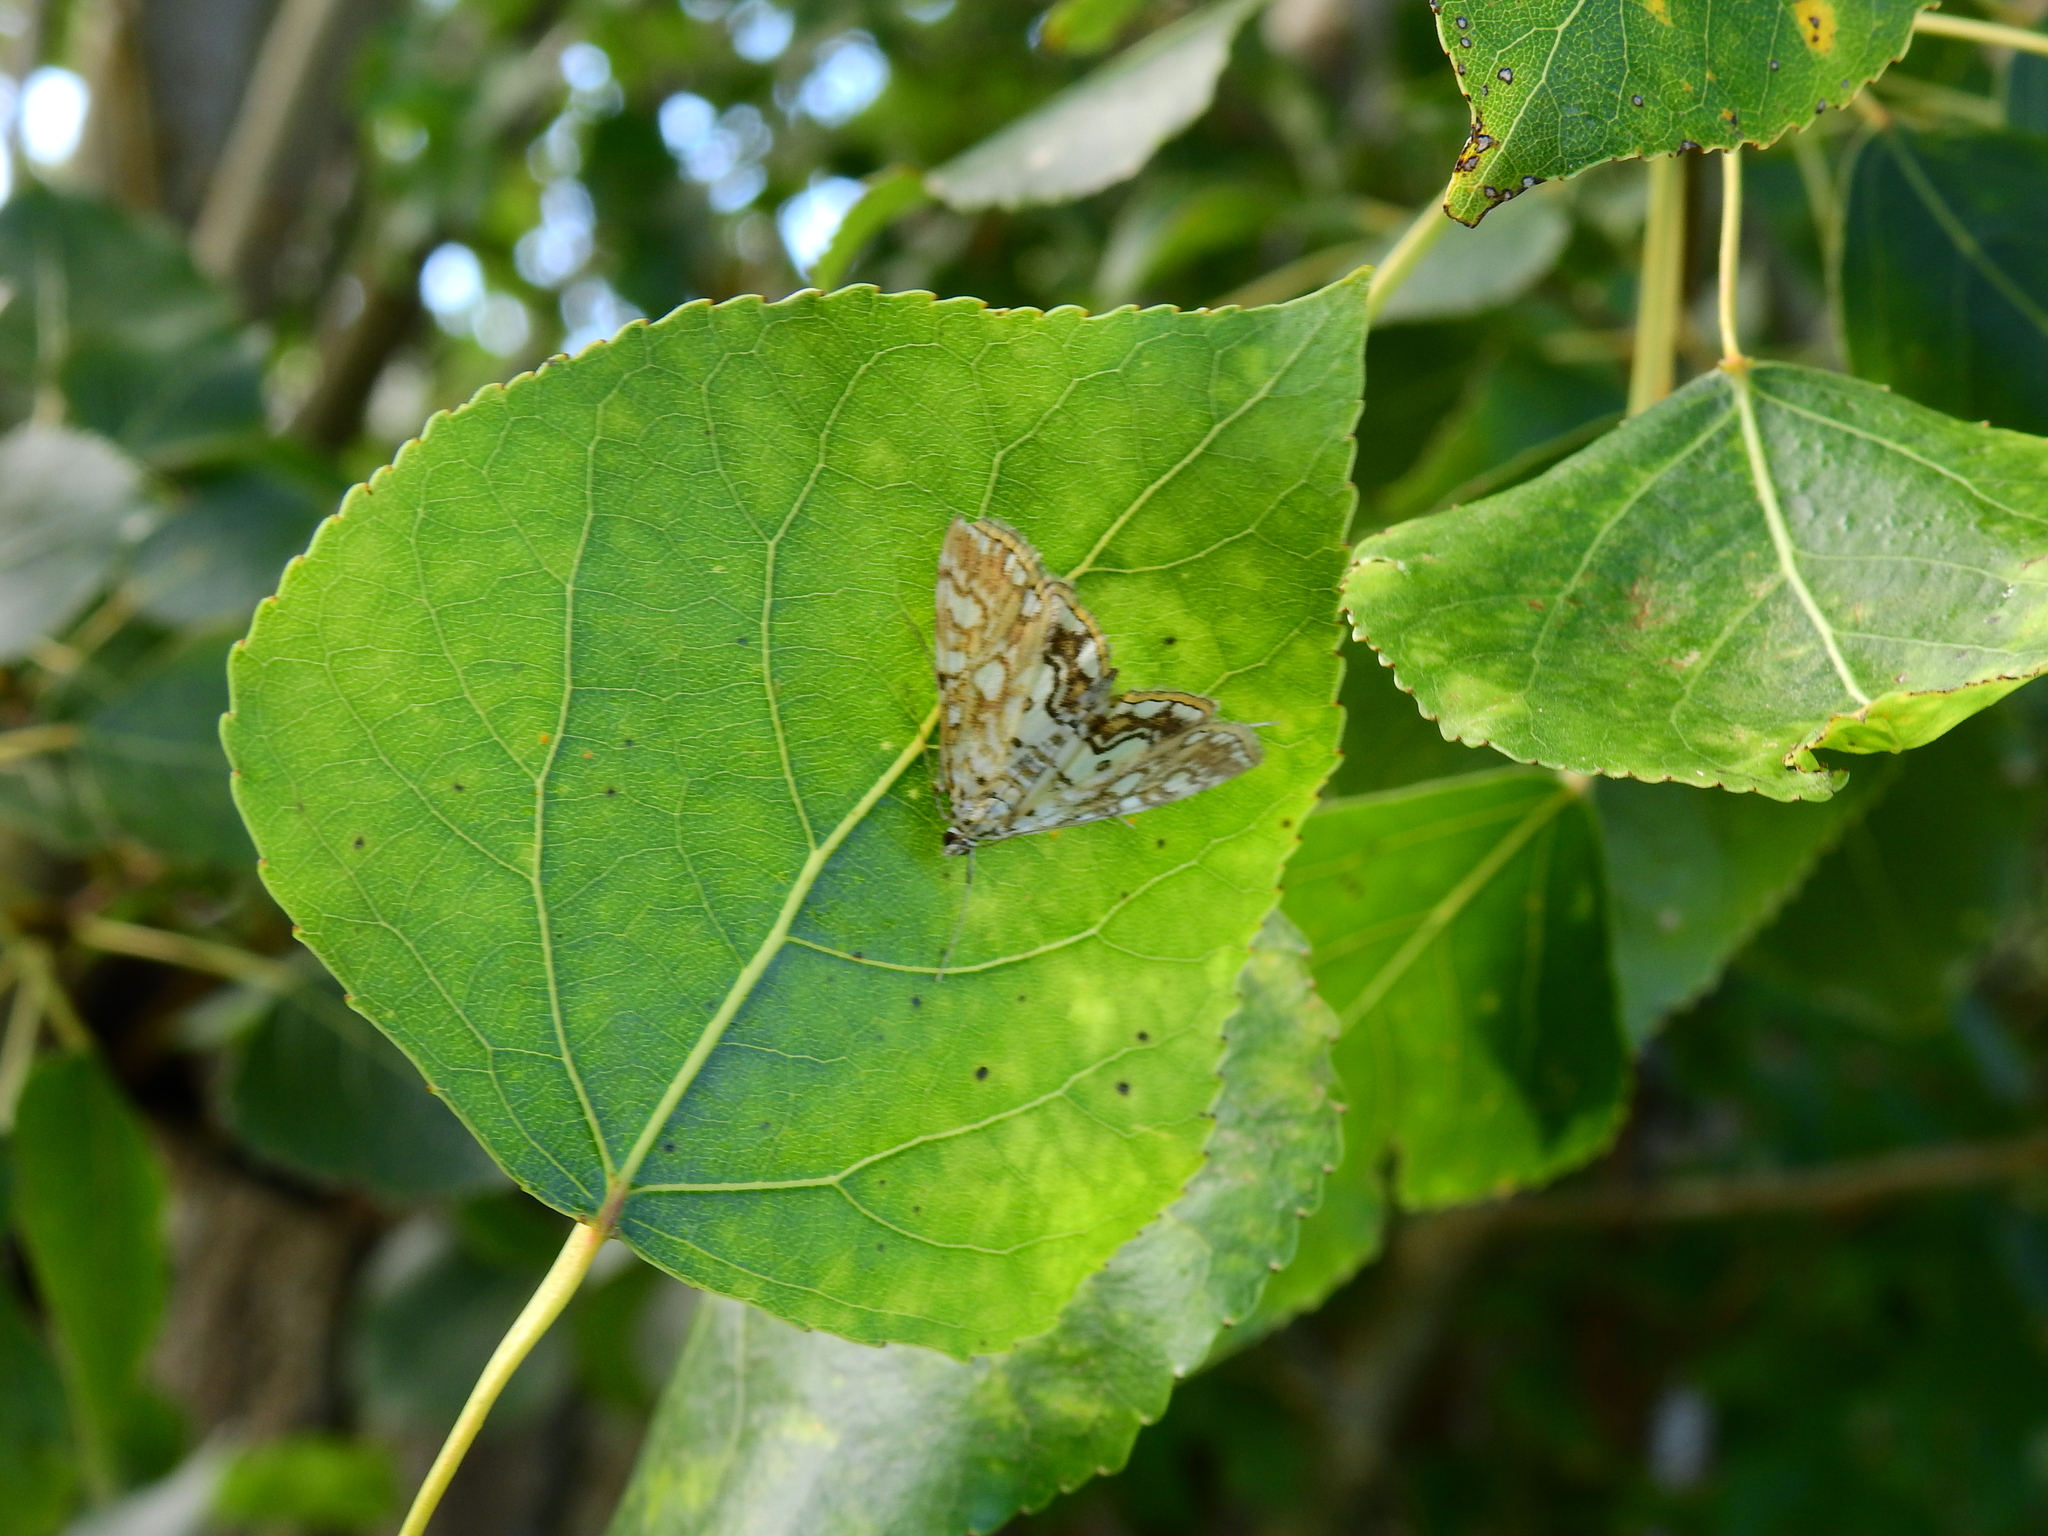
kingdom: Animalia
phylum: Arthropoda
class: Insecta
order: Lepidoptera
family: Crambidae
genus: Elophila
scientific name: Elophila nymphaeata
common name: Brown china-mark
